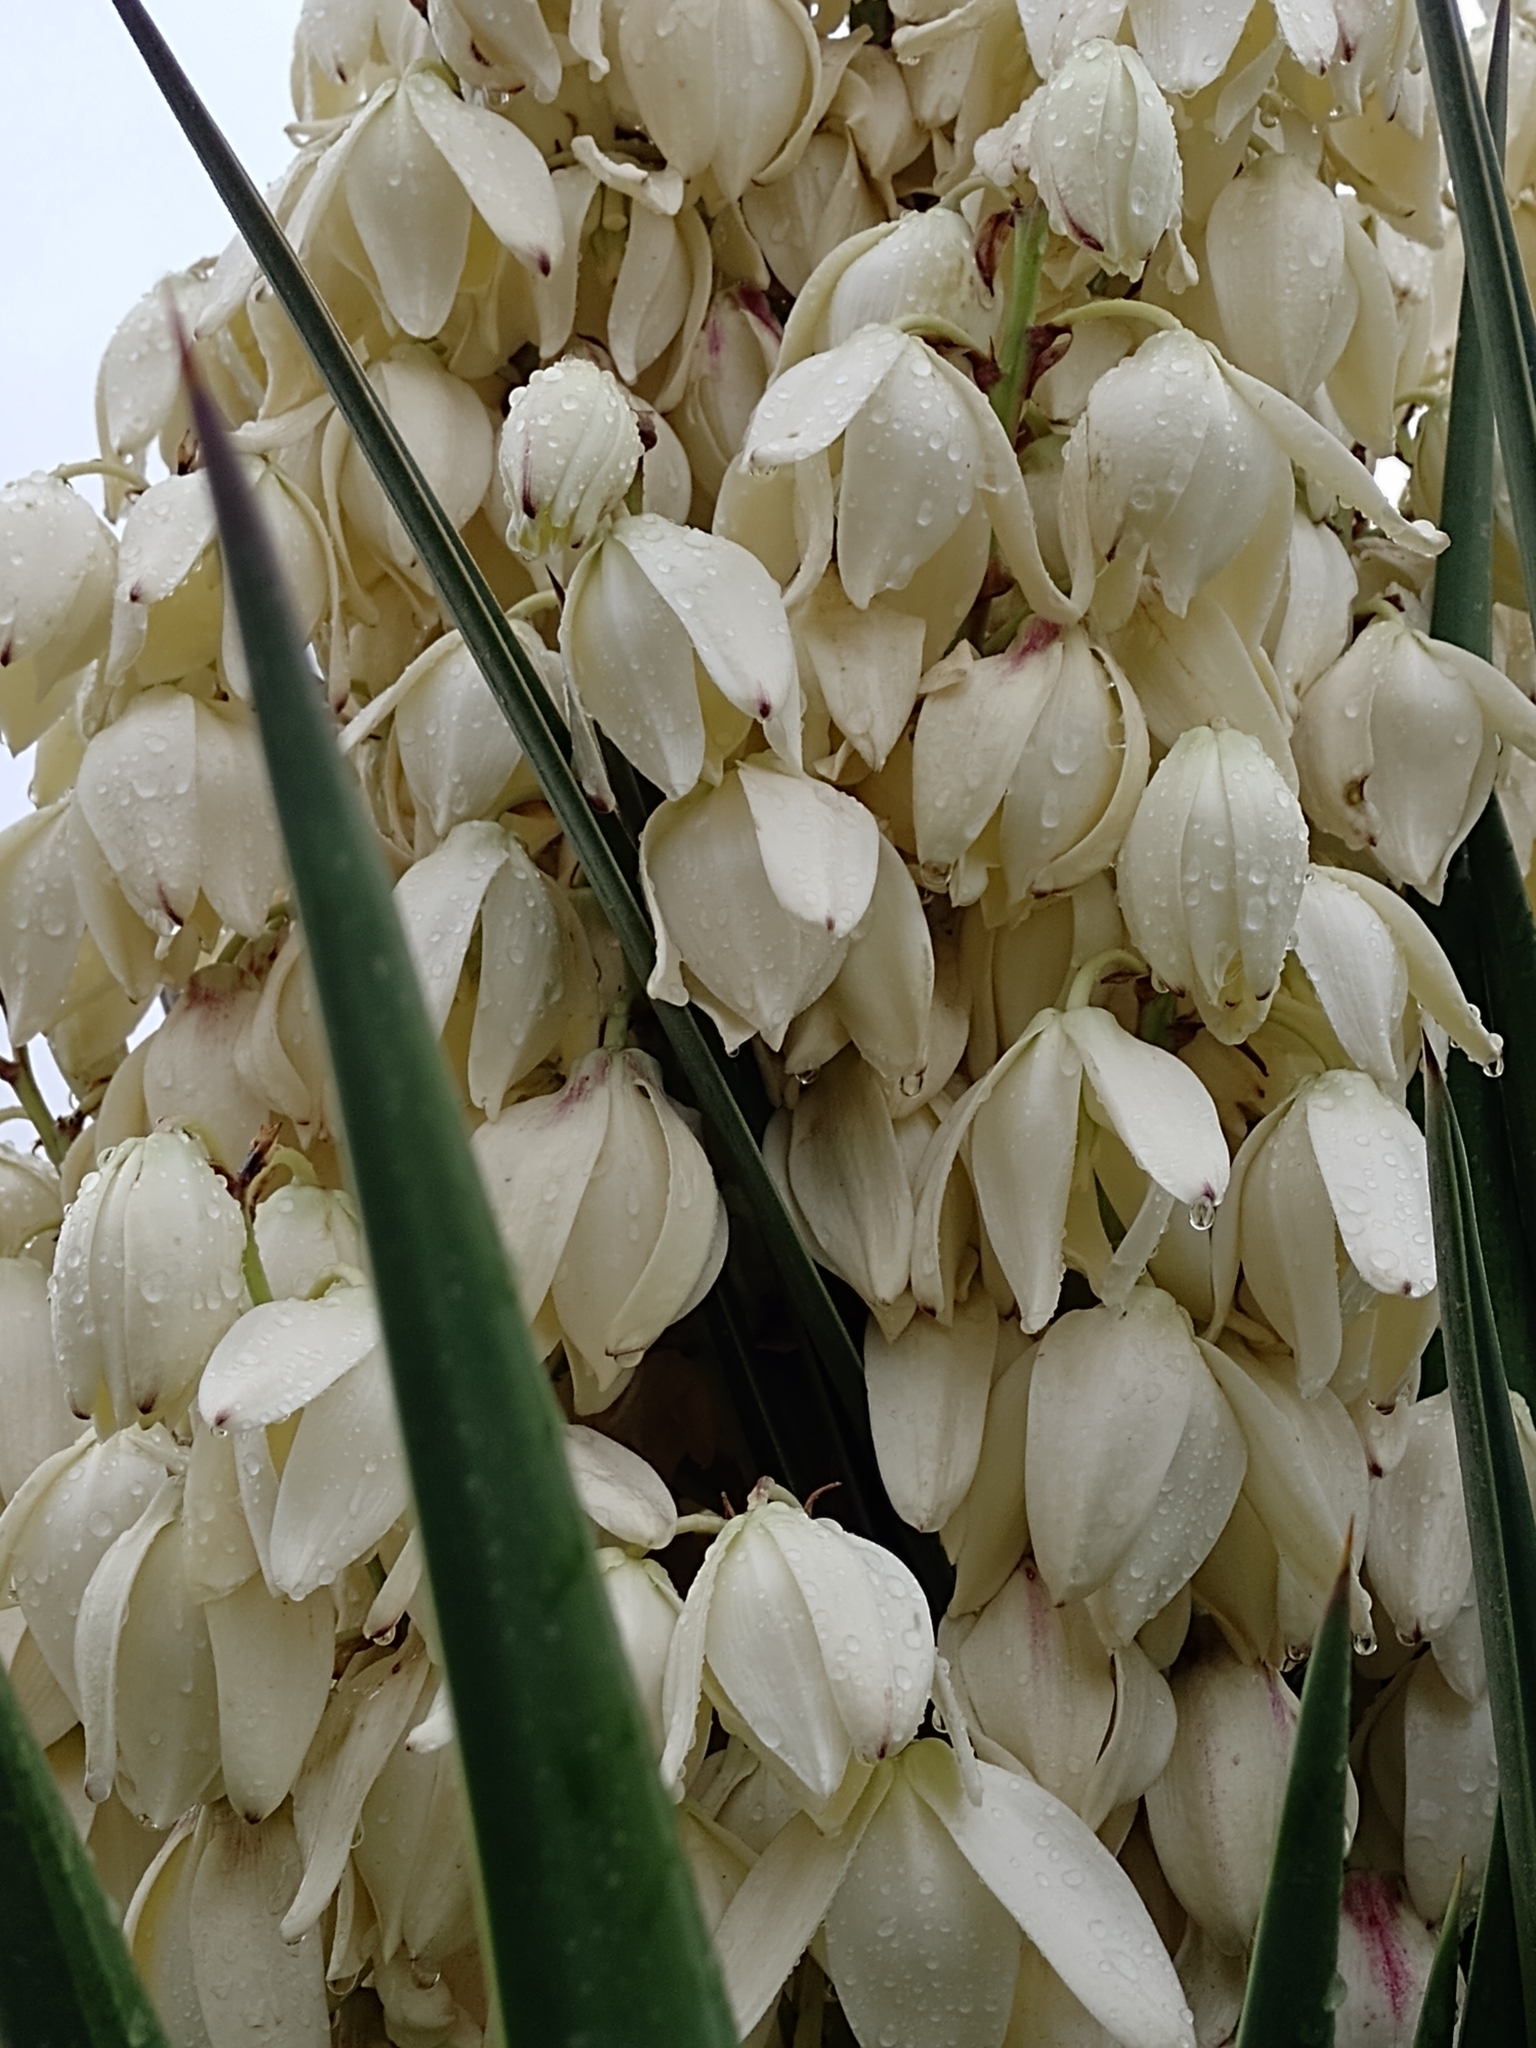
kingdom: Plantae
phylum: Tracheophyta
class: Liliopsida
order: Asparagales
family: Asparagaceae
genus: Yucca
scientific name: Yucca gloriosa
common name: Spanish-dagger
